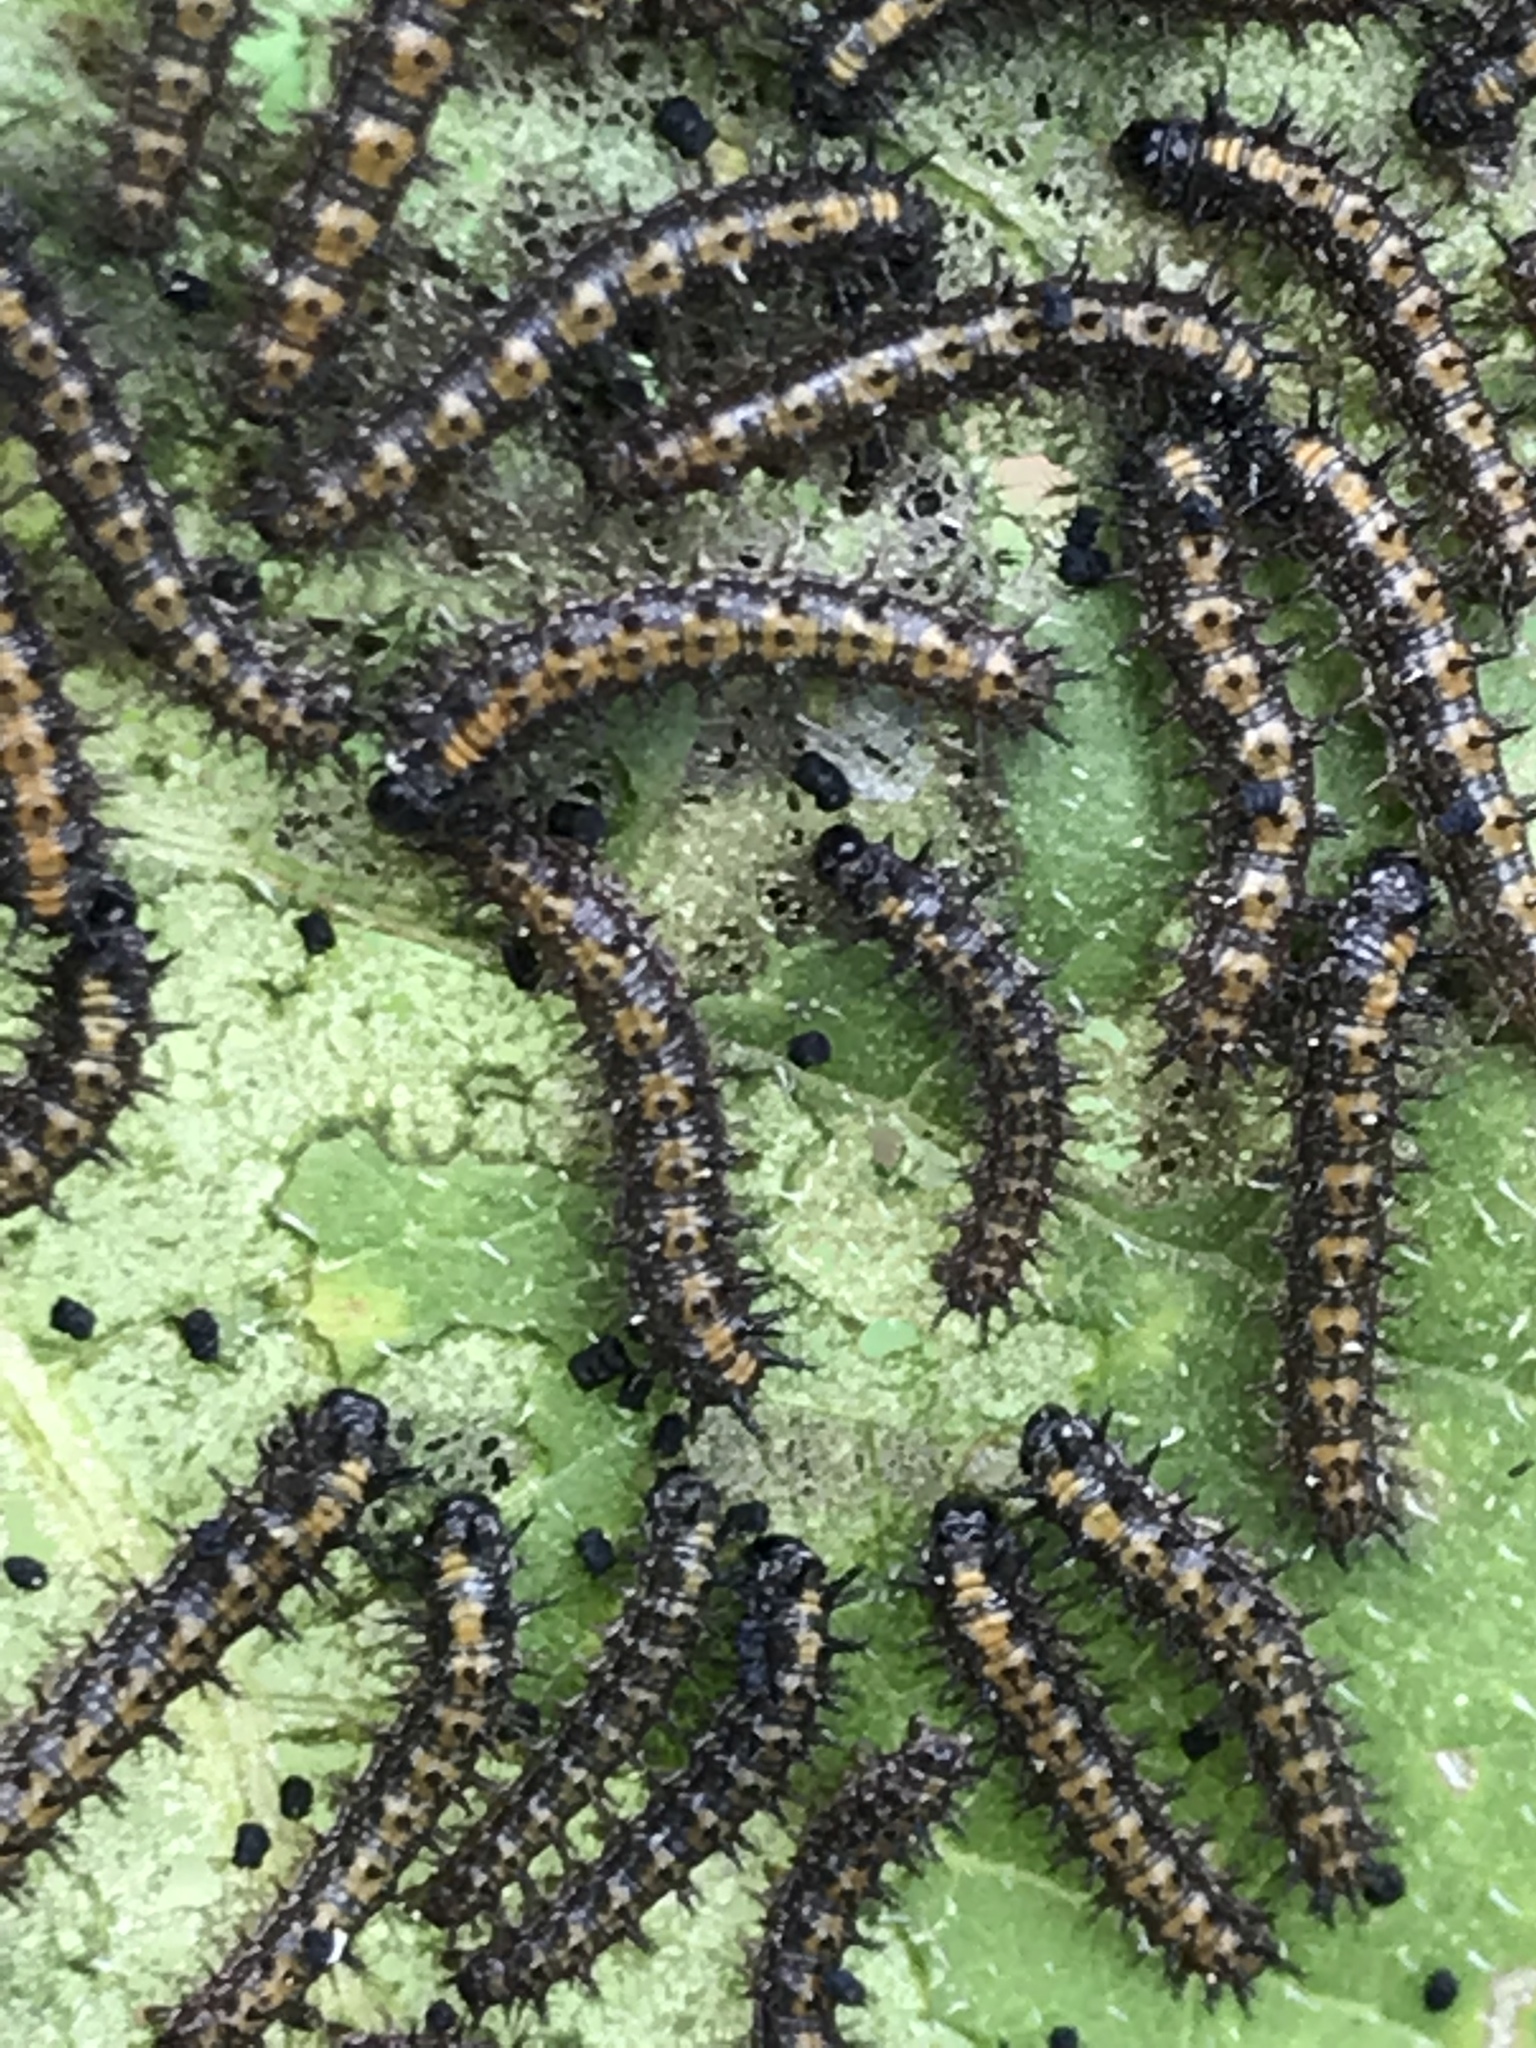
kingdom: Animalia
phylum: Arthropoda
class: Insecta
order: Lepidoptera
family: Nymphalidae
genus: Chlosyne
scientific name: Chlosyne lacinia
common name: Bordered patch
